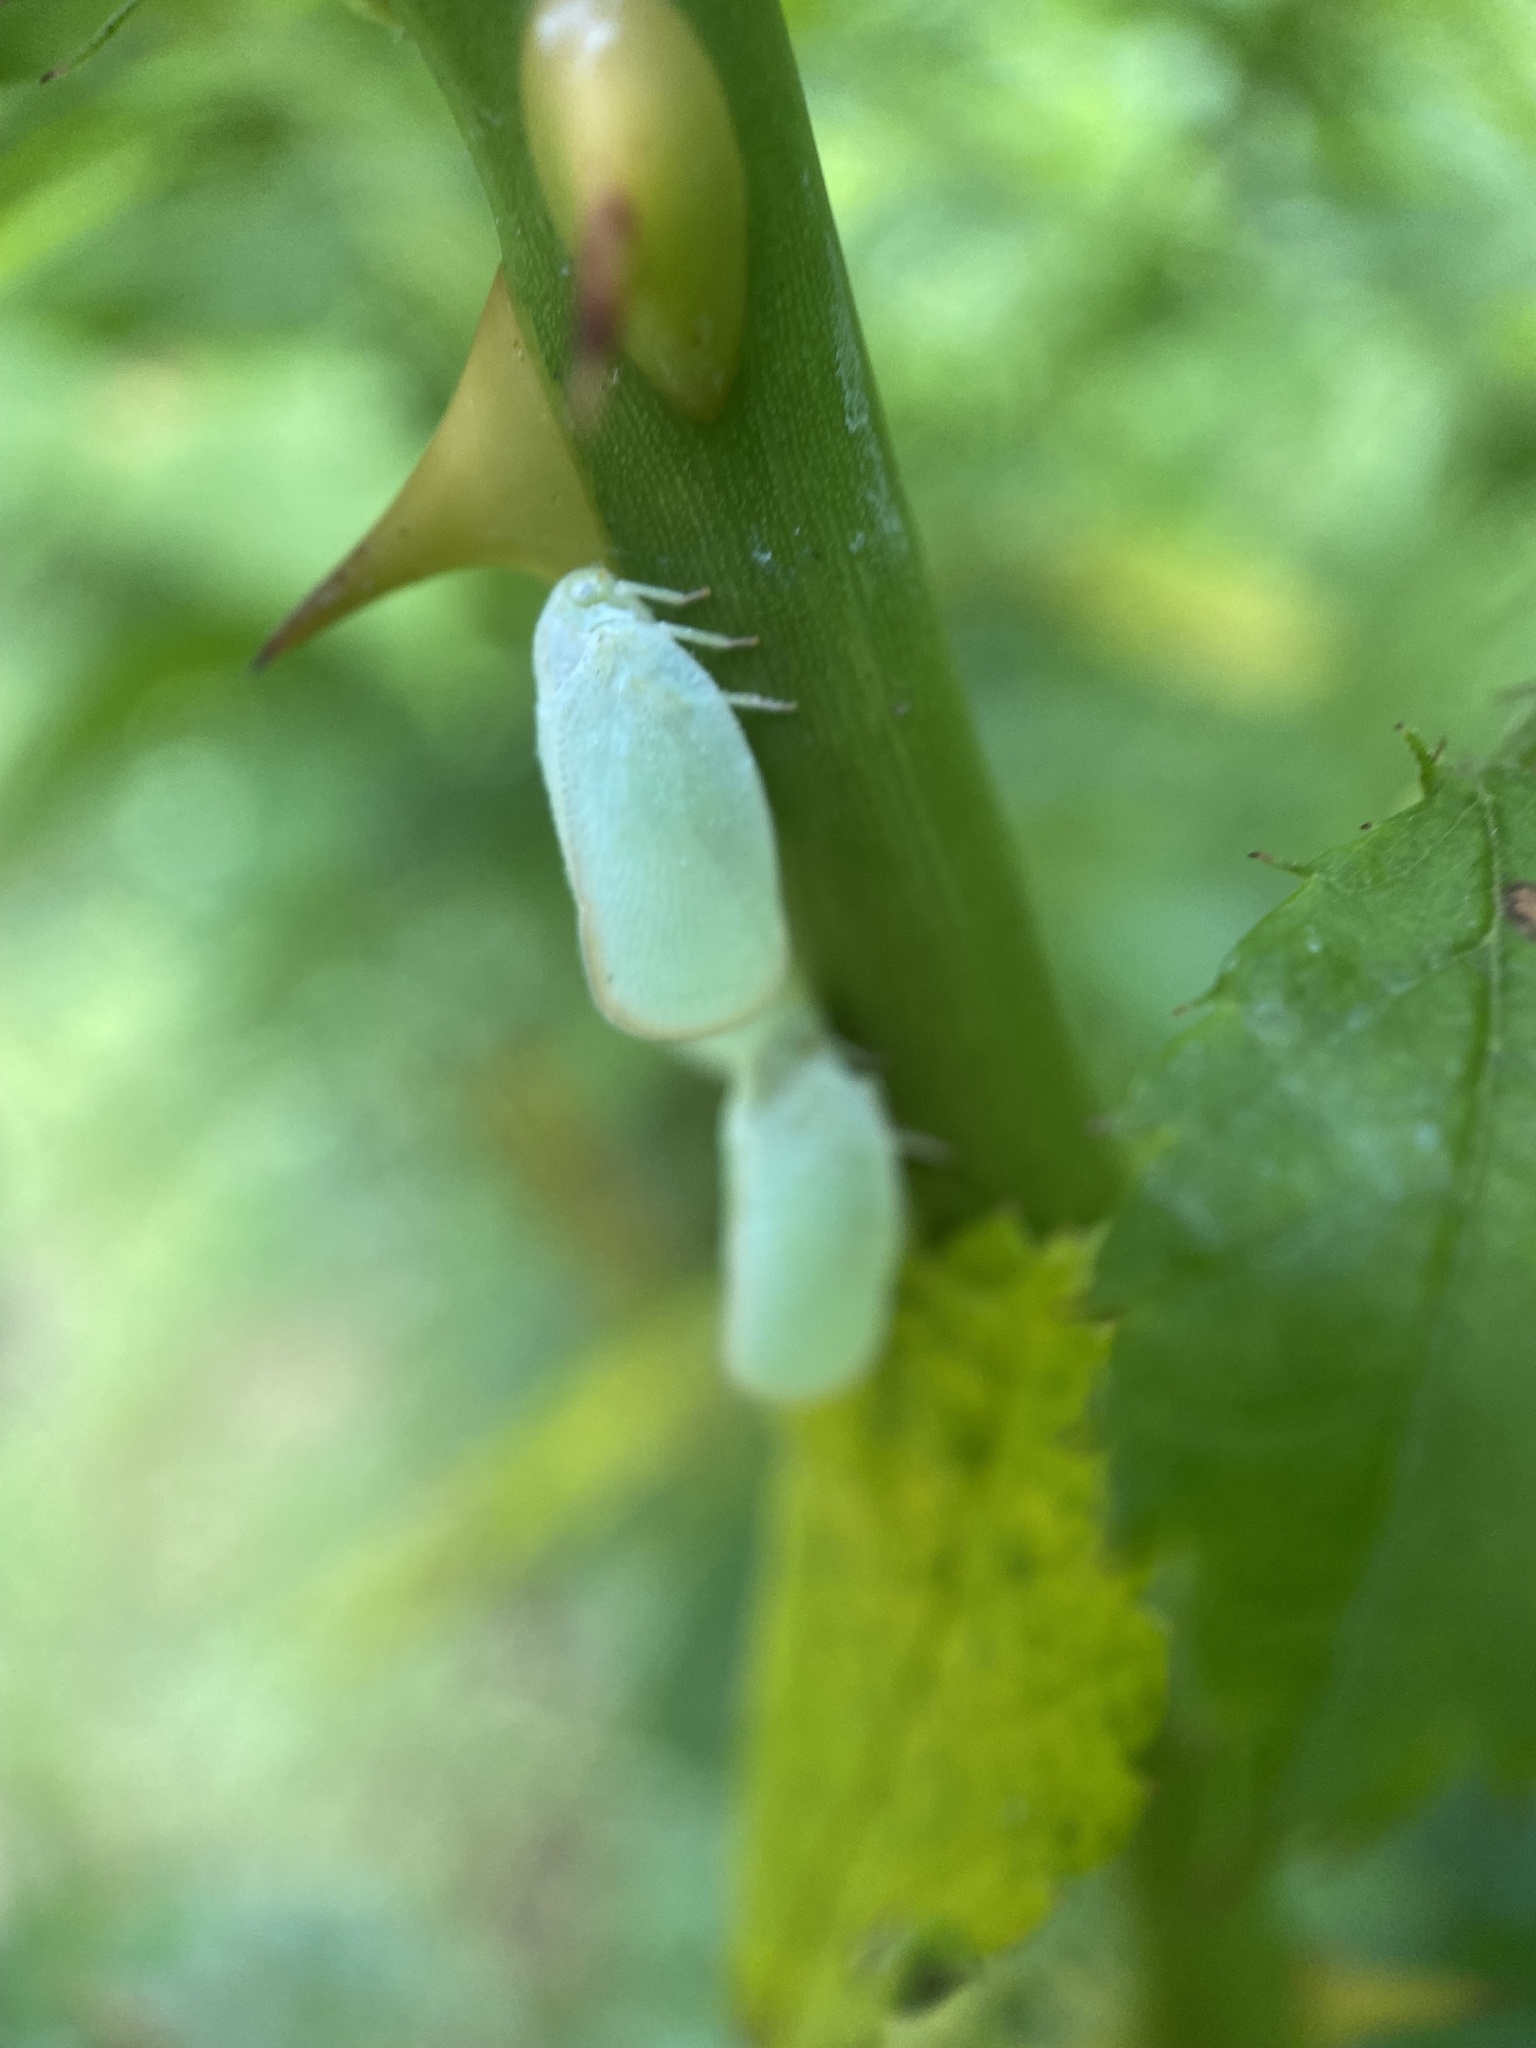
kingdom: Animalia
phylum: Arthropoda
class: Insecta
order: Hemiptera
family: Flatidae
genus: Ormenoides
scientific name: Ormenoides venusta
